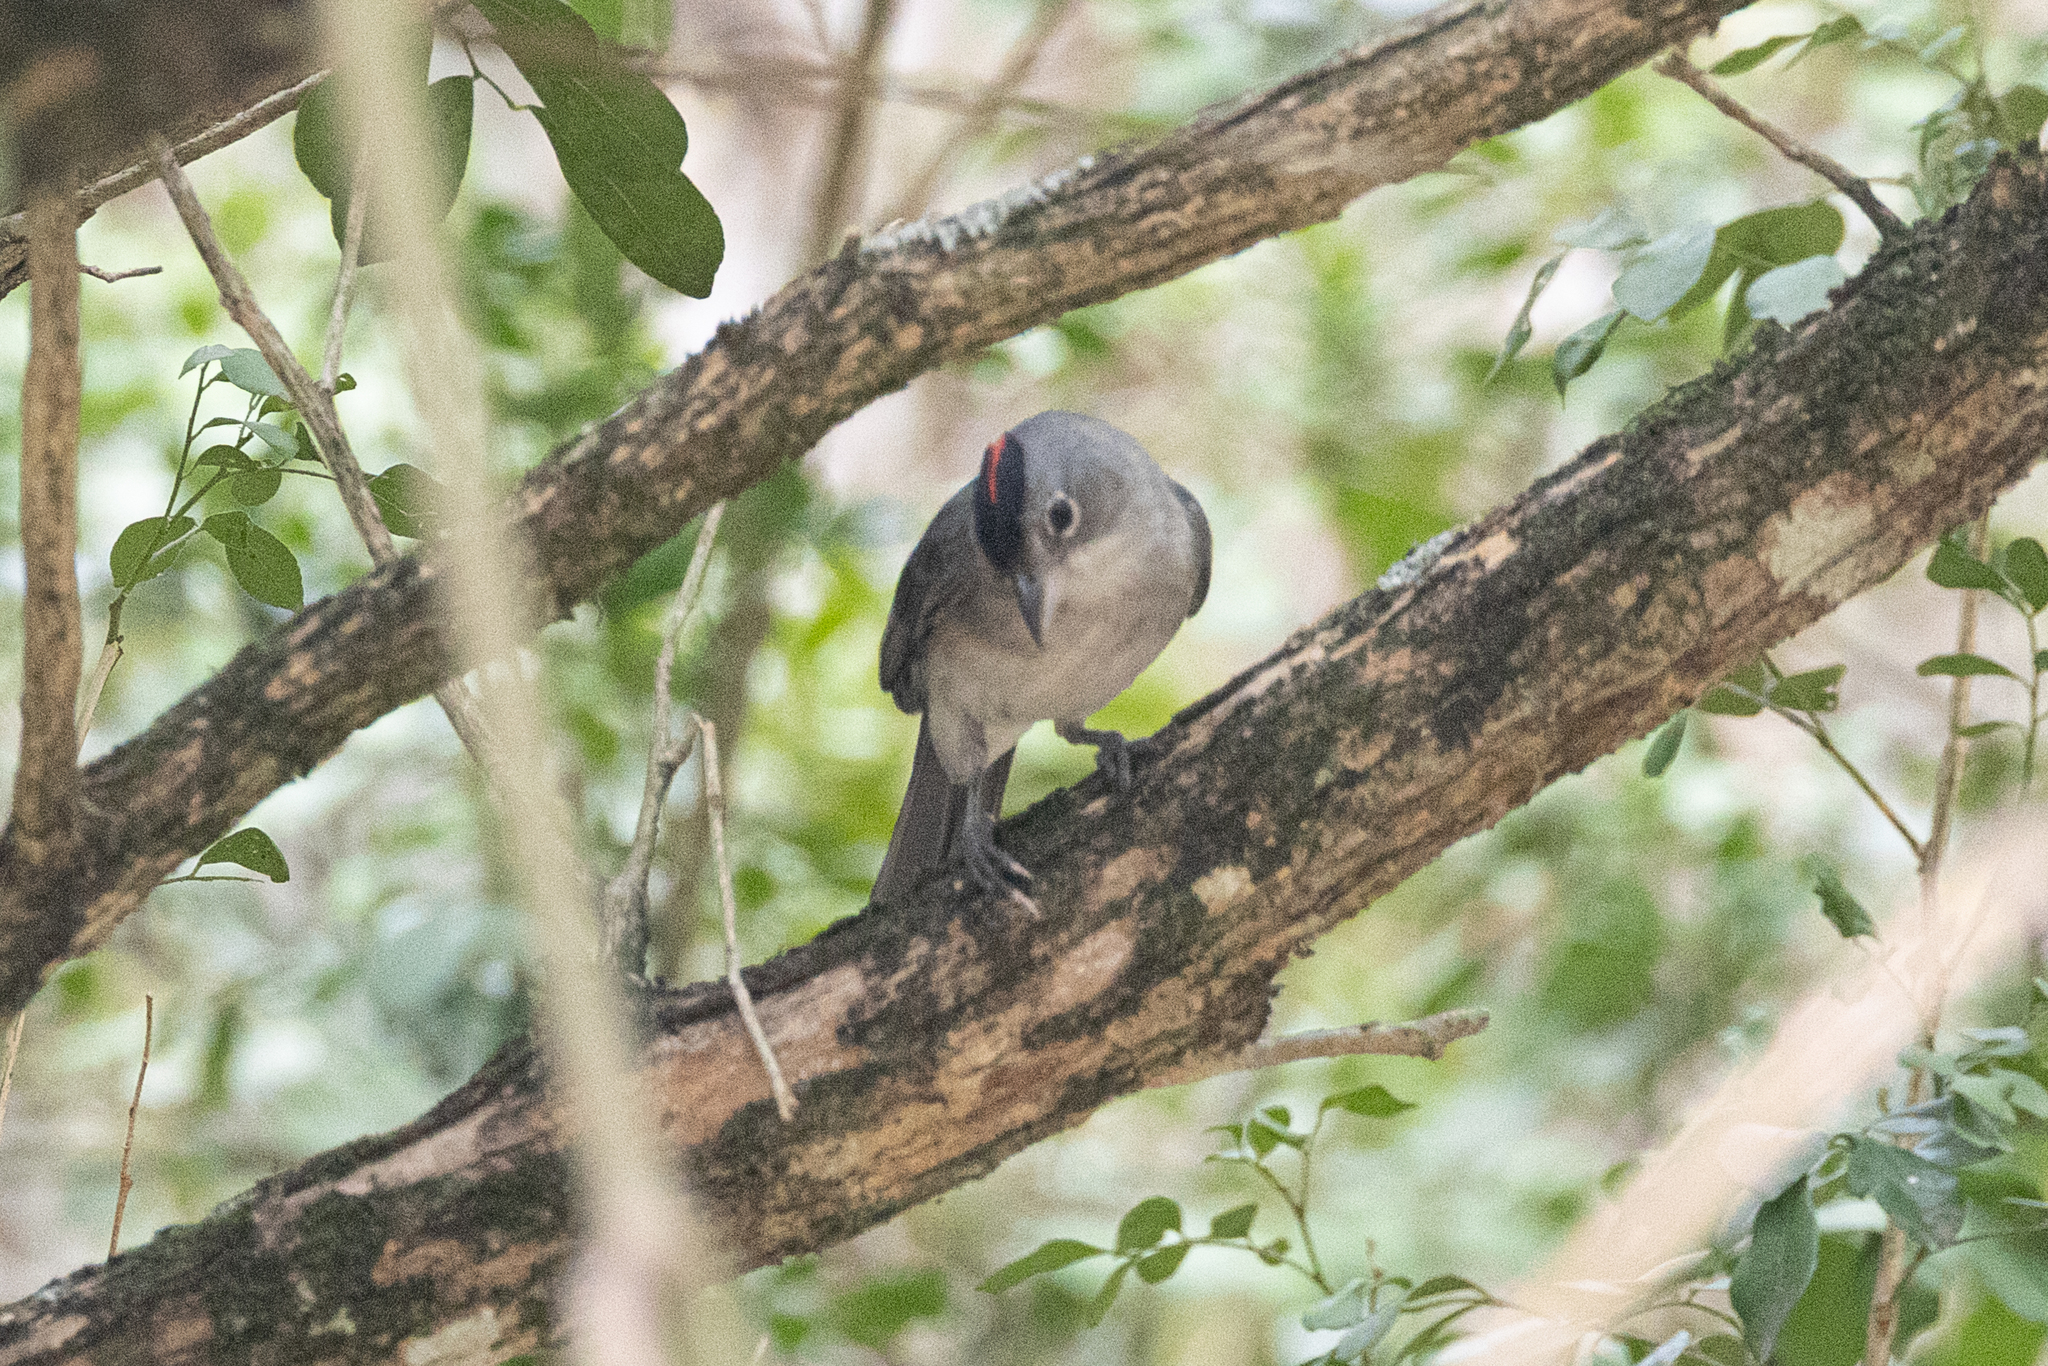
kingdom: Animalia
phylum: Chordata
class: Aves
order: Passeriformes
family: Thraupidae
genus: Coryphospingus
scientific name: Coryphospingus pileatus
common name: Grey pileated finch
